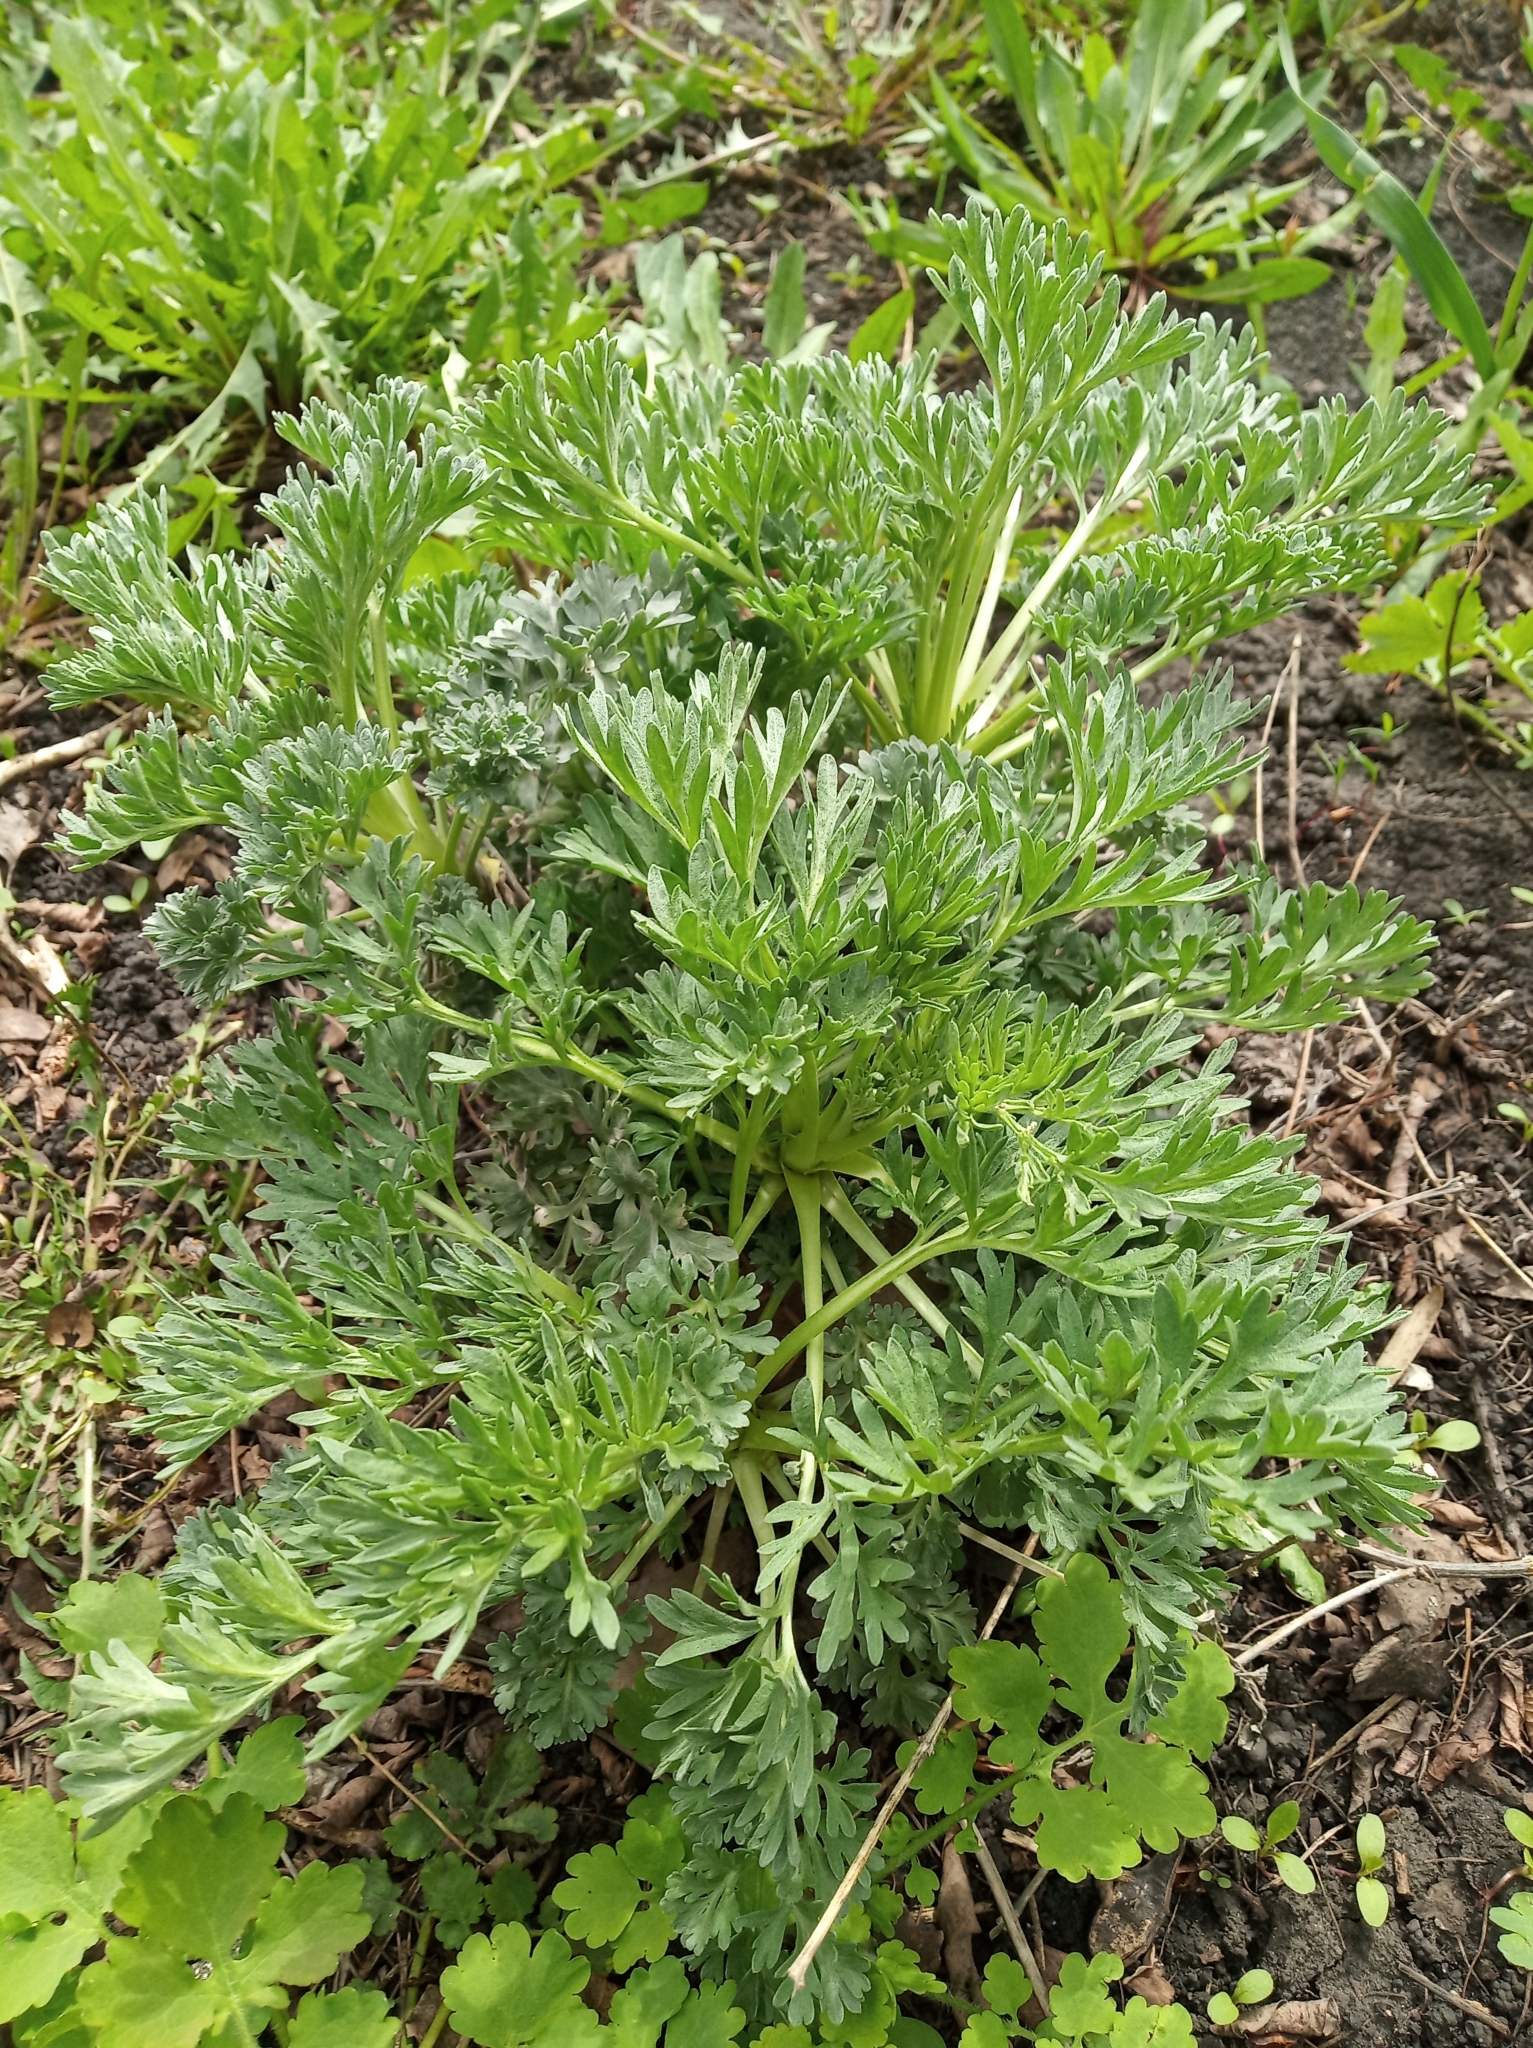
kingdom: Plantae
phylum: Tracheophyta
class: Magnoliopsida
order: Asterales
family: Asteraceae
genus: Artemisia
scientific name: Artemisia absinthium
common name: Wormwood
